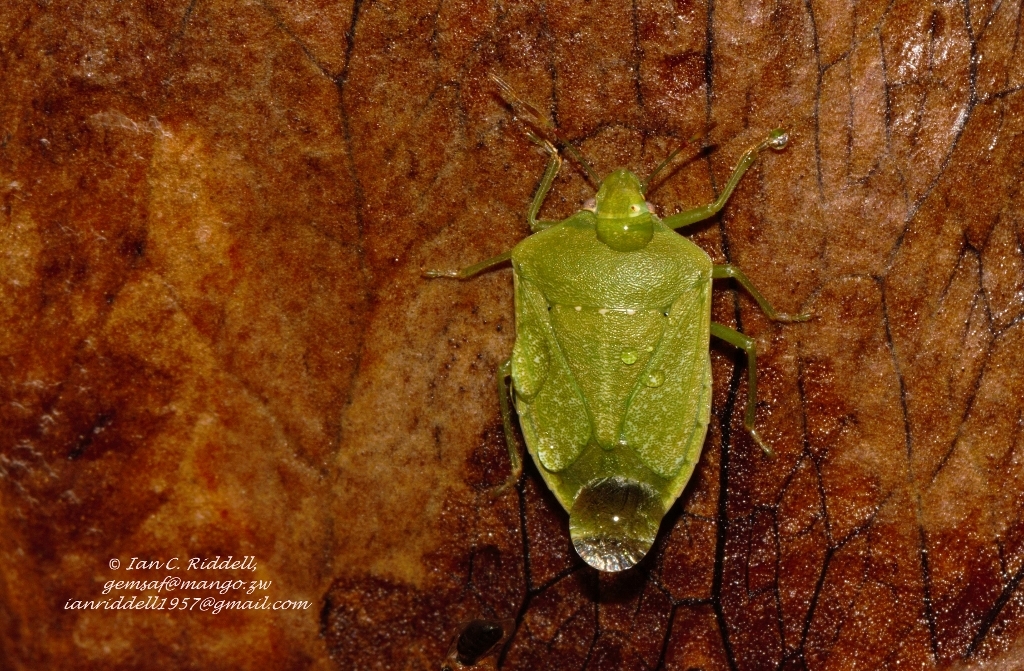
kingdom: Animalia
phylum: Arthropoda
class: Insecta
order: Hemiptera
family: Pentatomidae
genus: Nezara
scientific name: Nezara viridula
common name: Southern green stink bug
